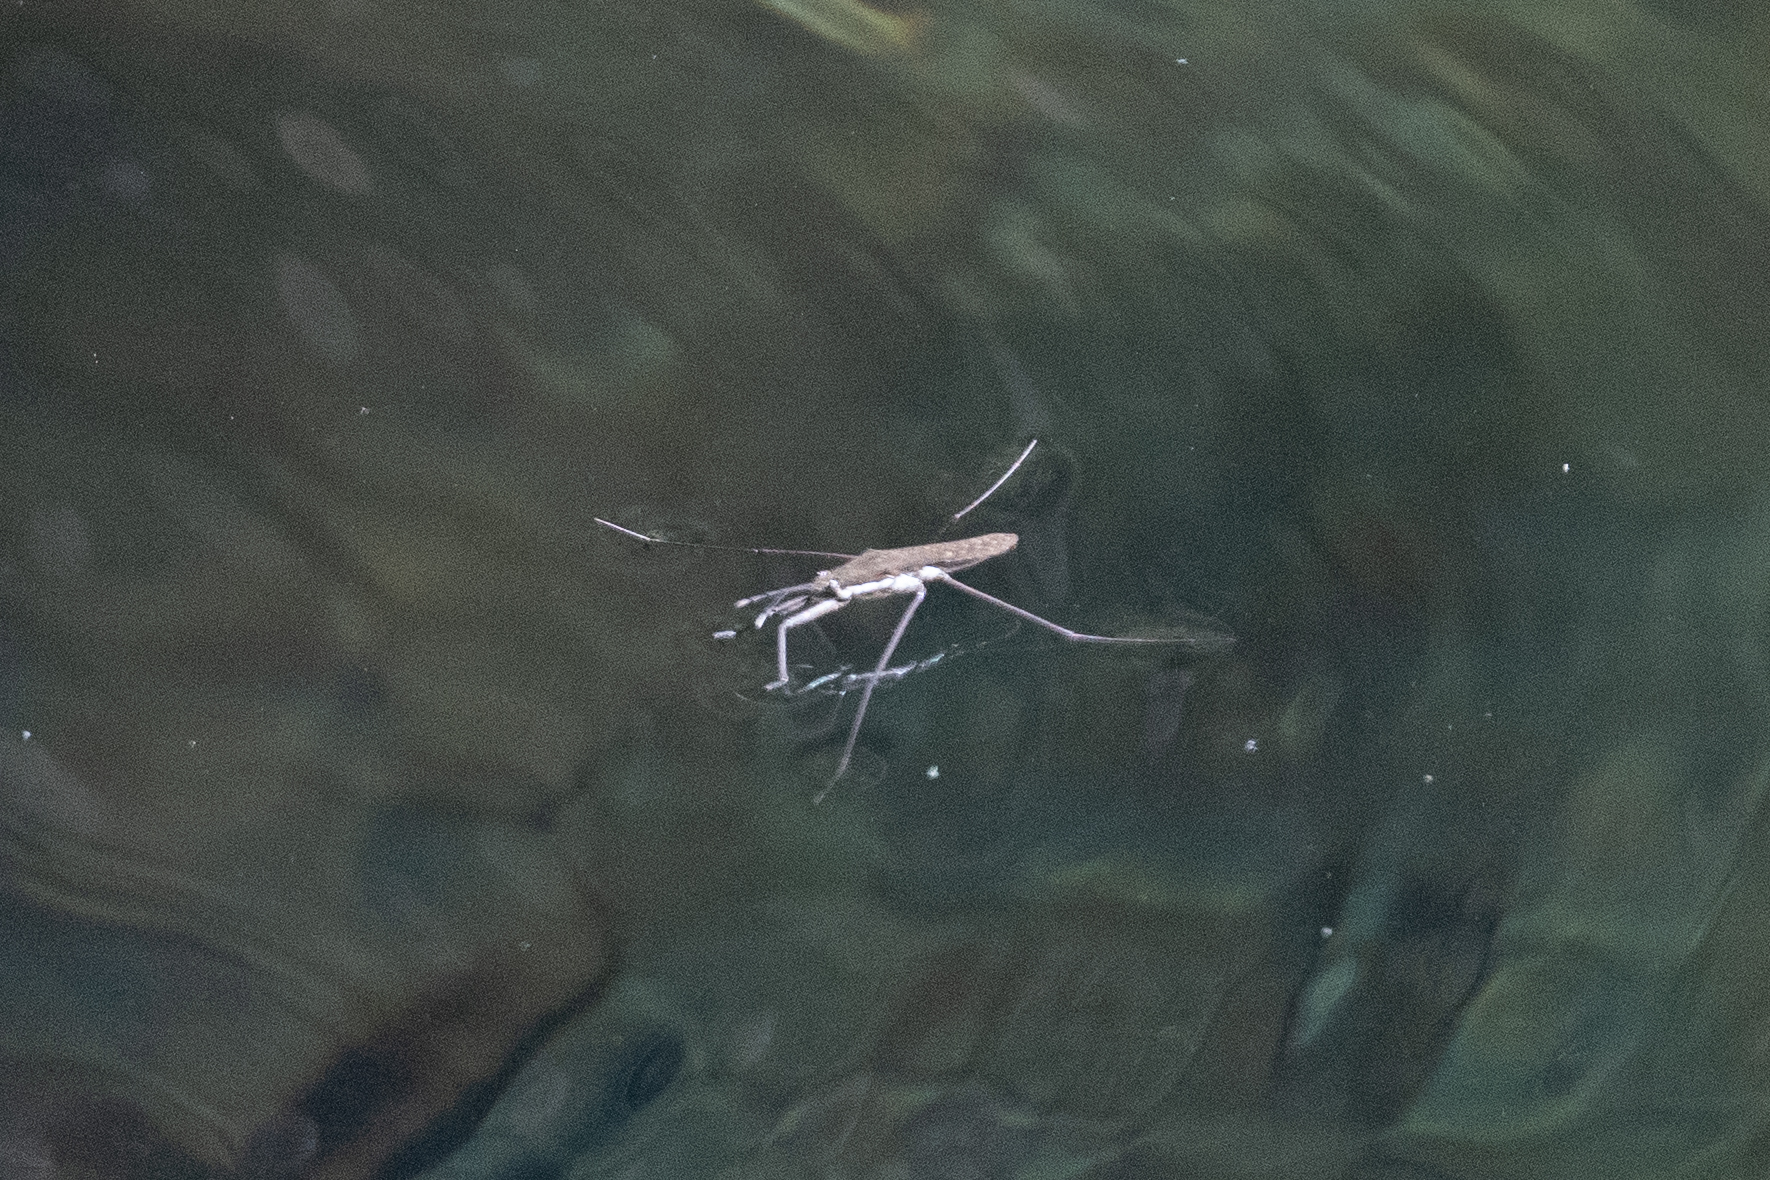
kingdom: Animalia
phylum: Arthropoda
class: Insecta
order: Hemiptera
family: Gerridae
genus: Aquarius
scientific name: Aquarius remigis
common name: Common water strider
